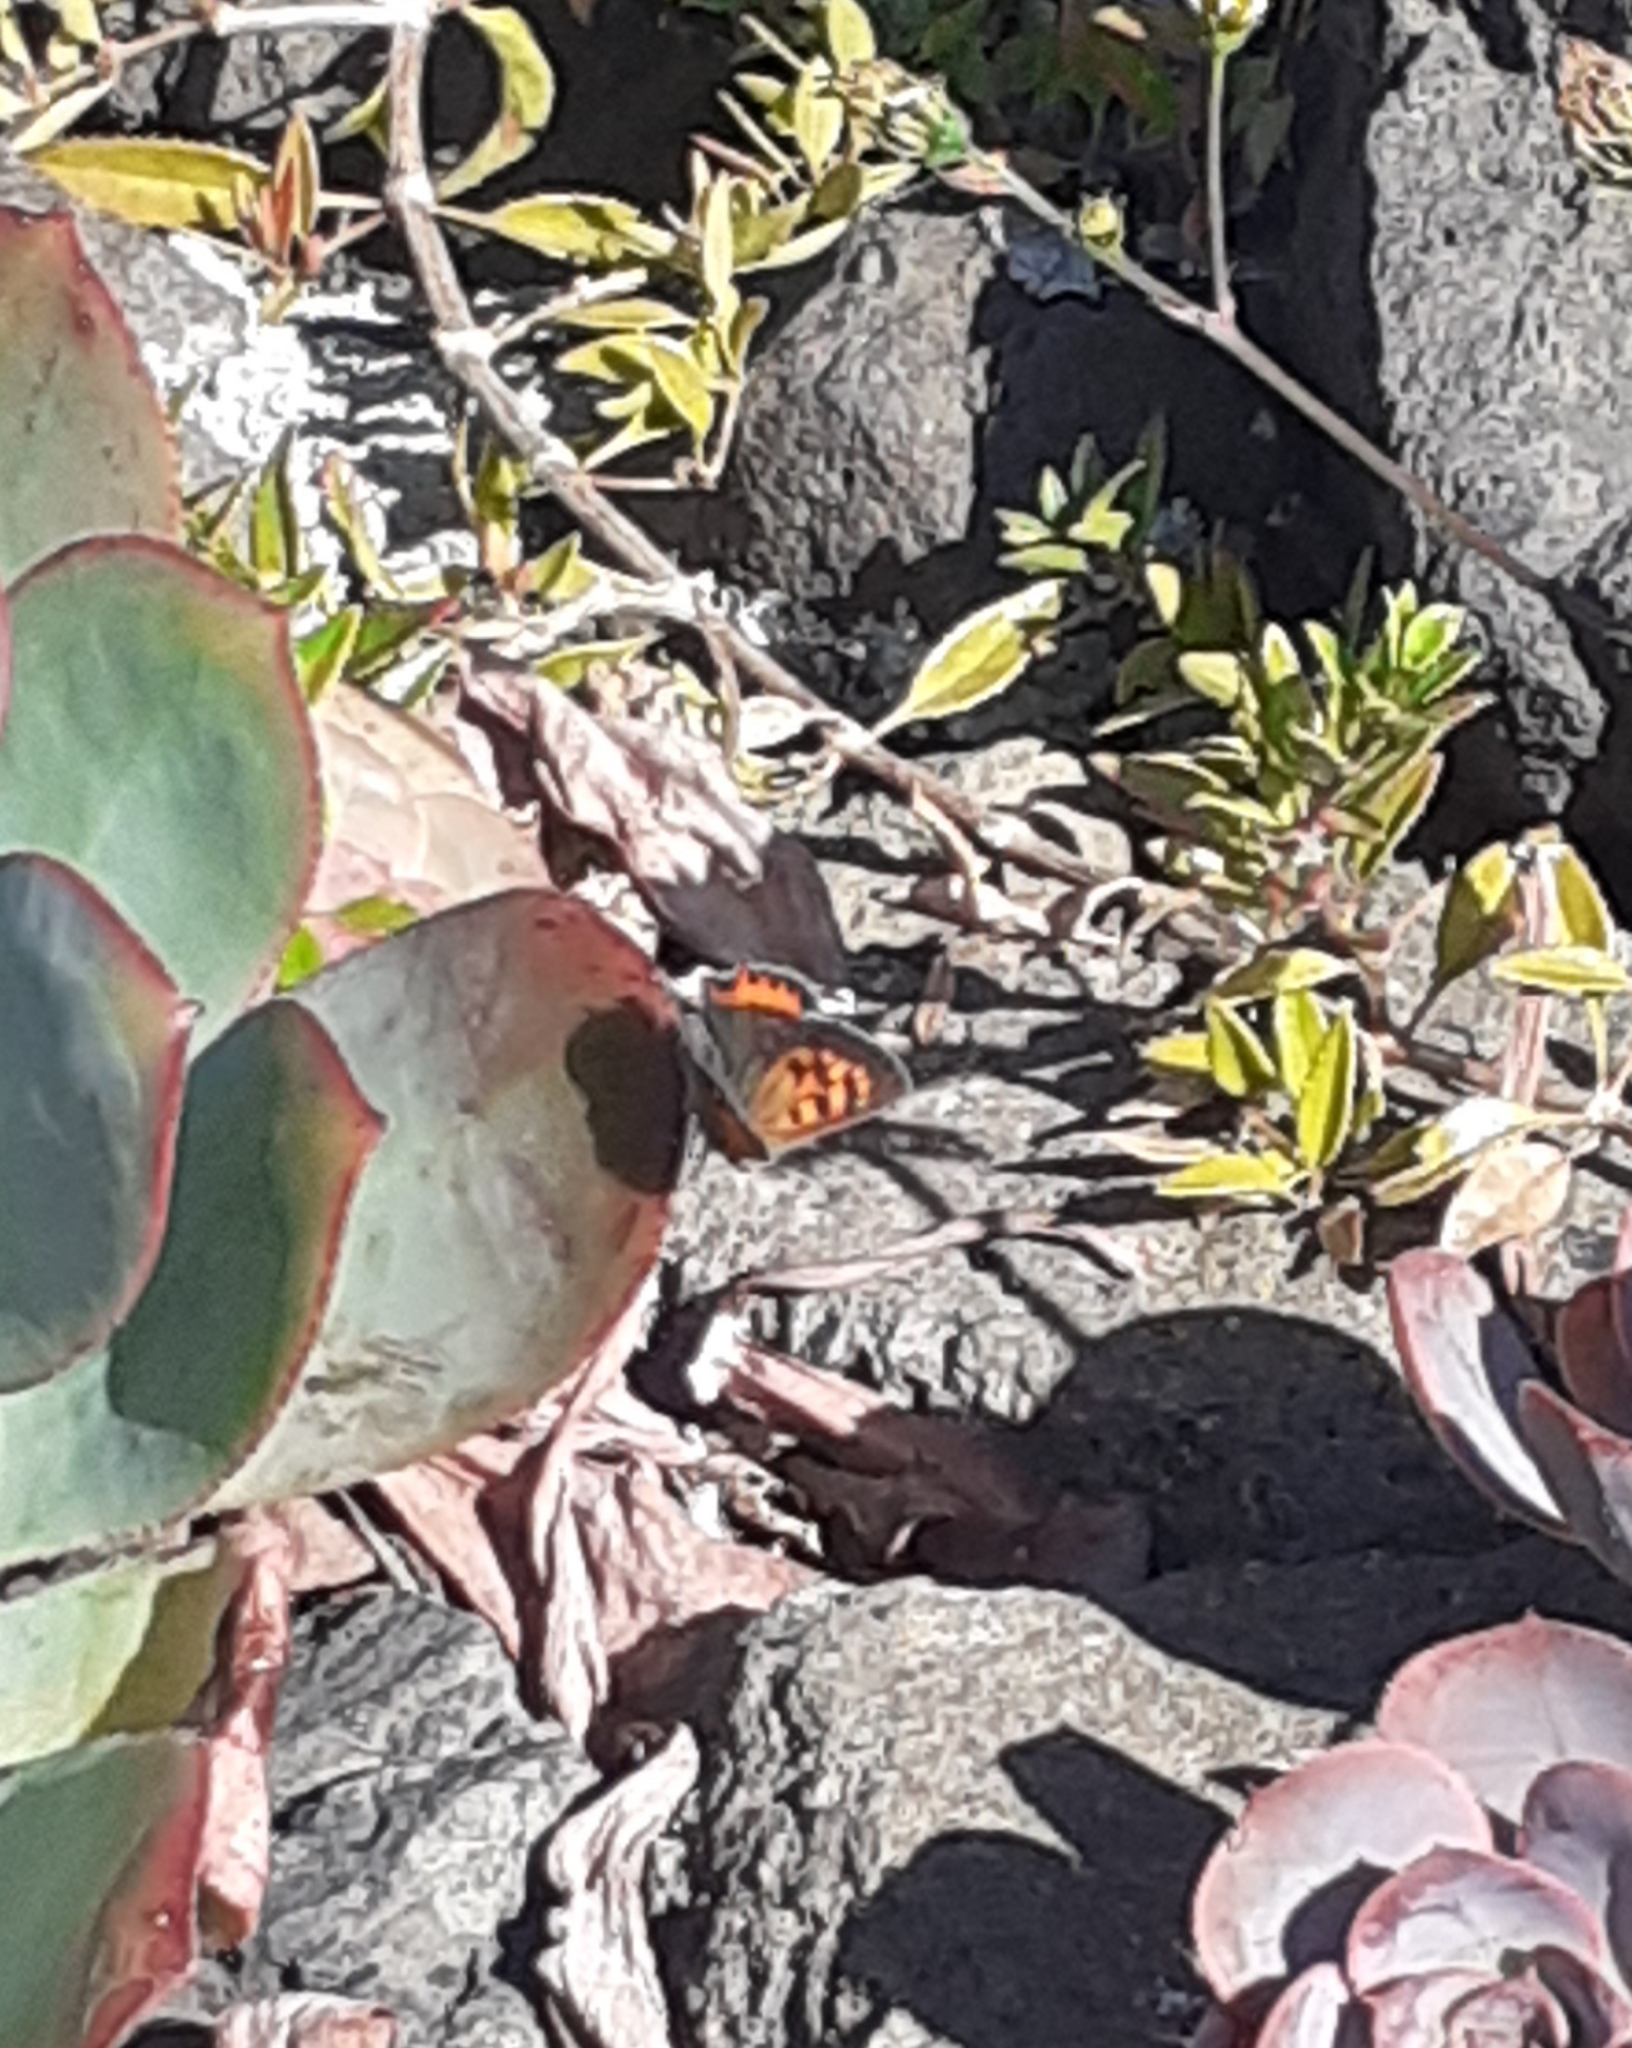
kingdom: Animalia
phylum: Arthropoda
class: Insecta
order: Lepidoptera
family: Lycaenidae
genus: Lycaena
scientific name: Lycaena phlaeas
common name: Small copper
